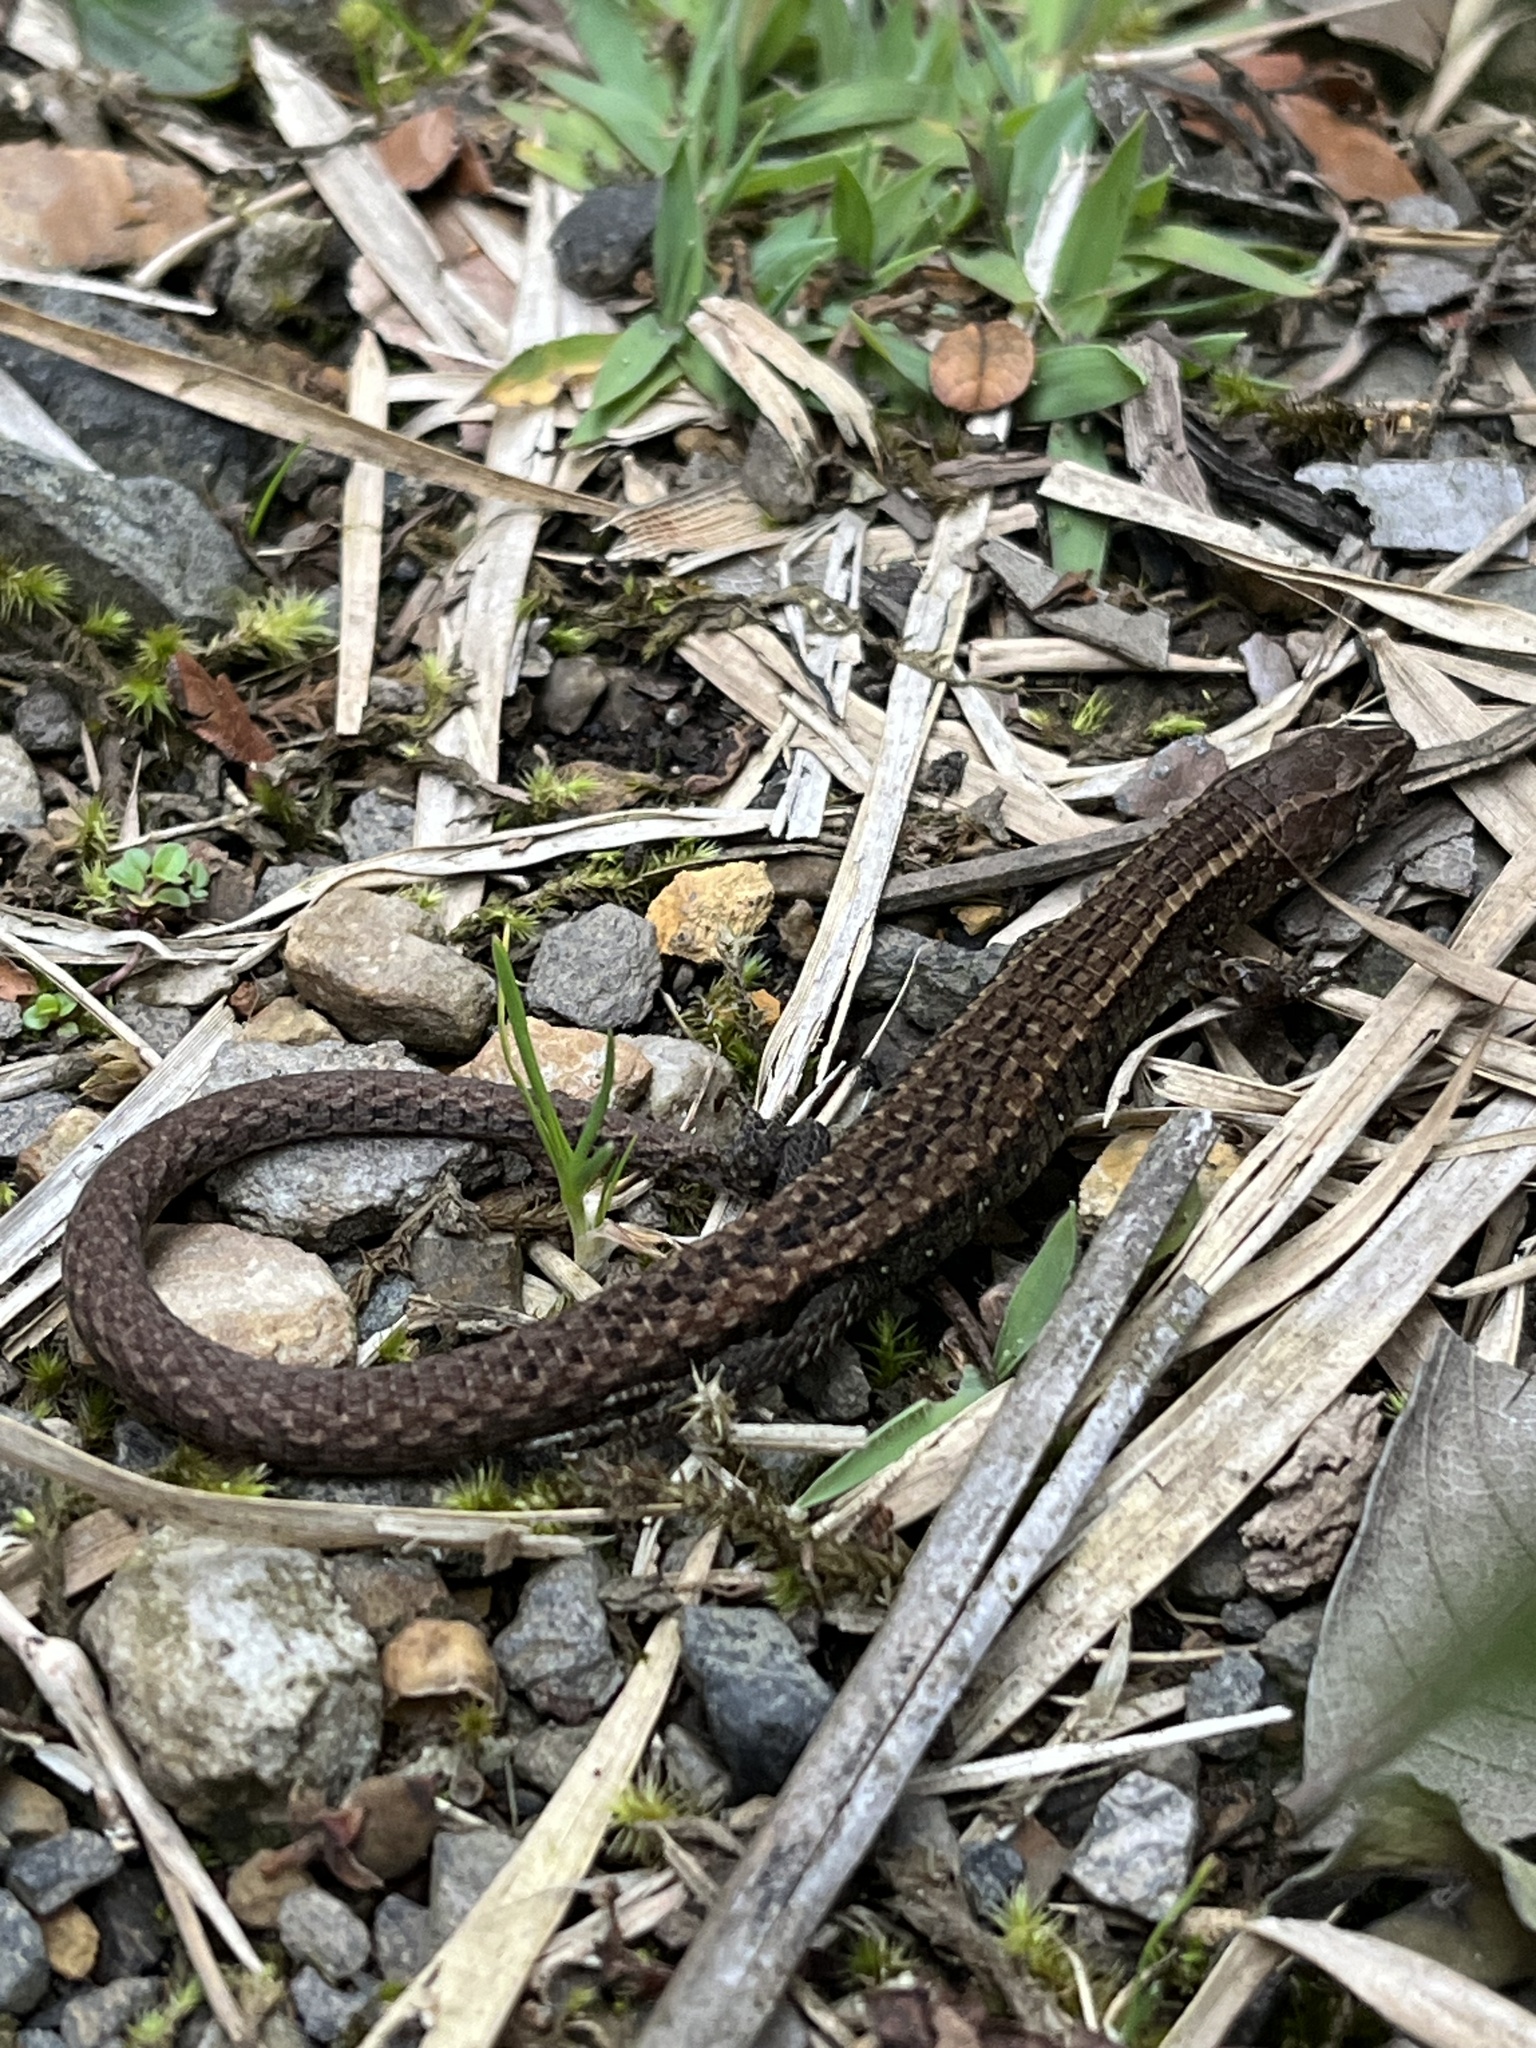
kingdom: Animalia
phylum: Chordata
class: Squamata
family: Gymnophthalmidae
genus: Riama
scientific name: Riama striata
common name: Striped lightbulb lizard
